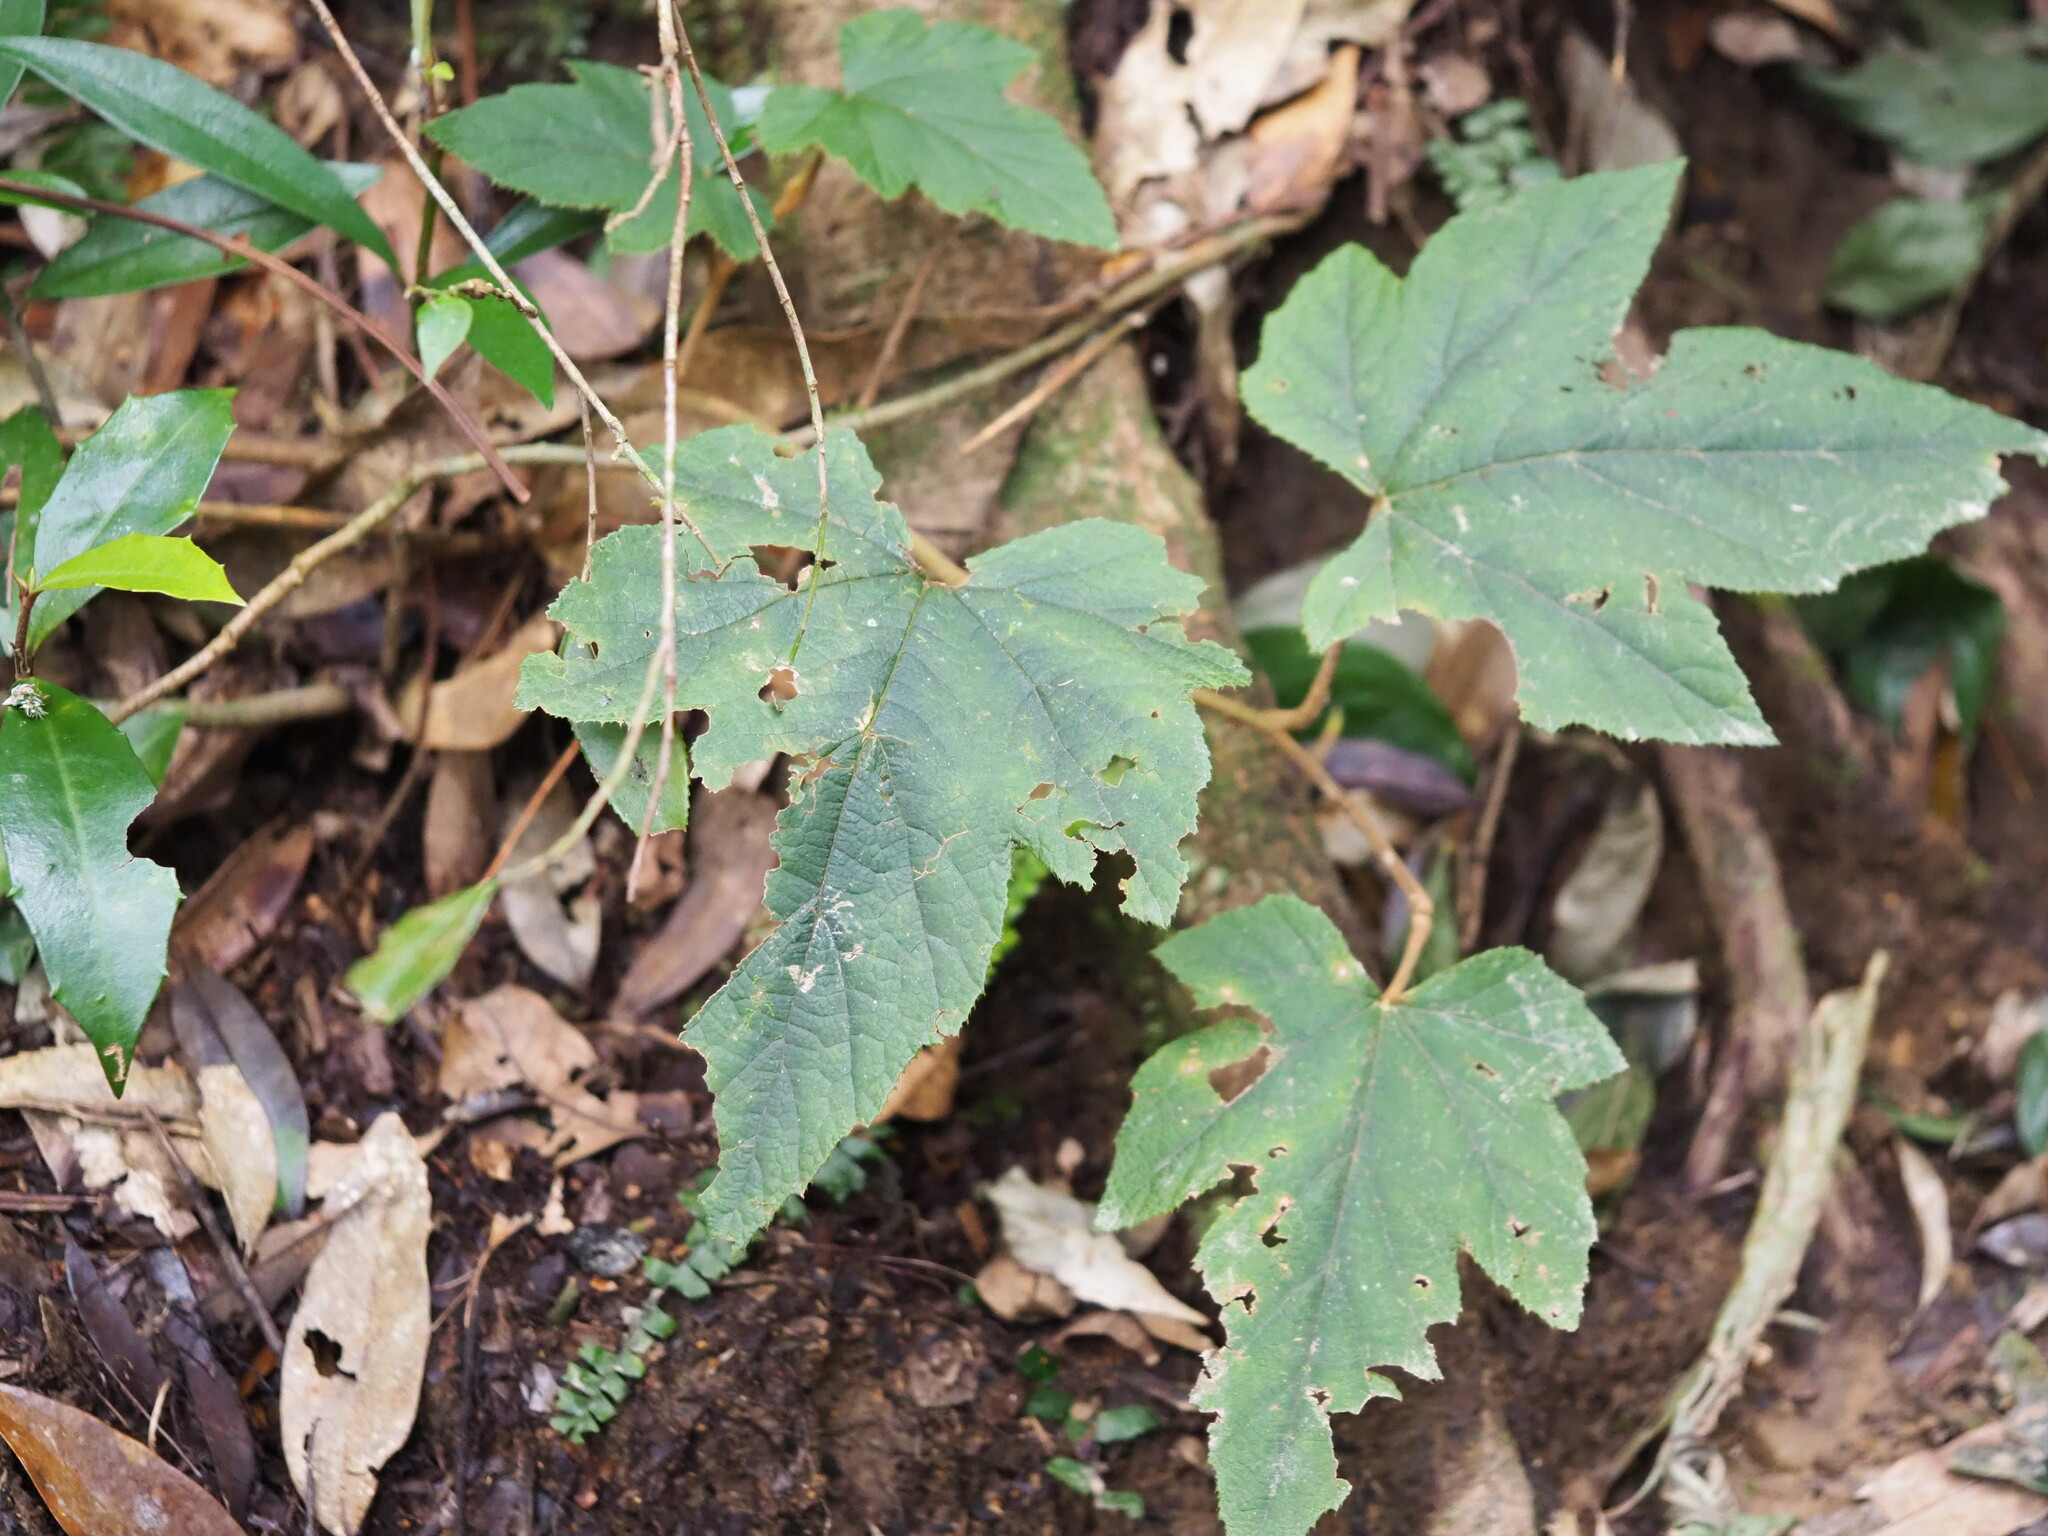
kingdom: Plantae
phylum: Tracheophyta
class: Magnoliopsida
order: Rosales
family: Rosaceae
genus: Rubus
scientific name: Rubus reflexus
